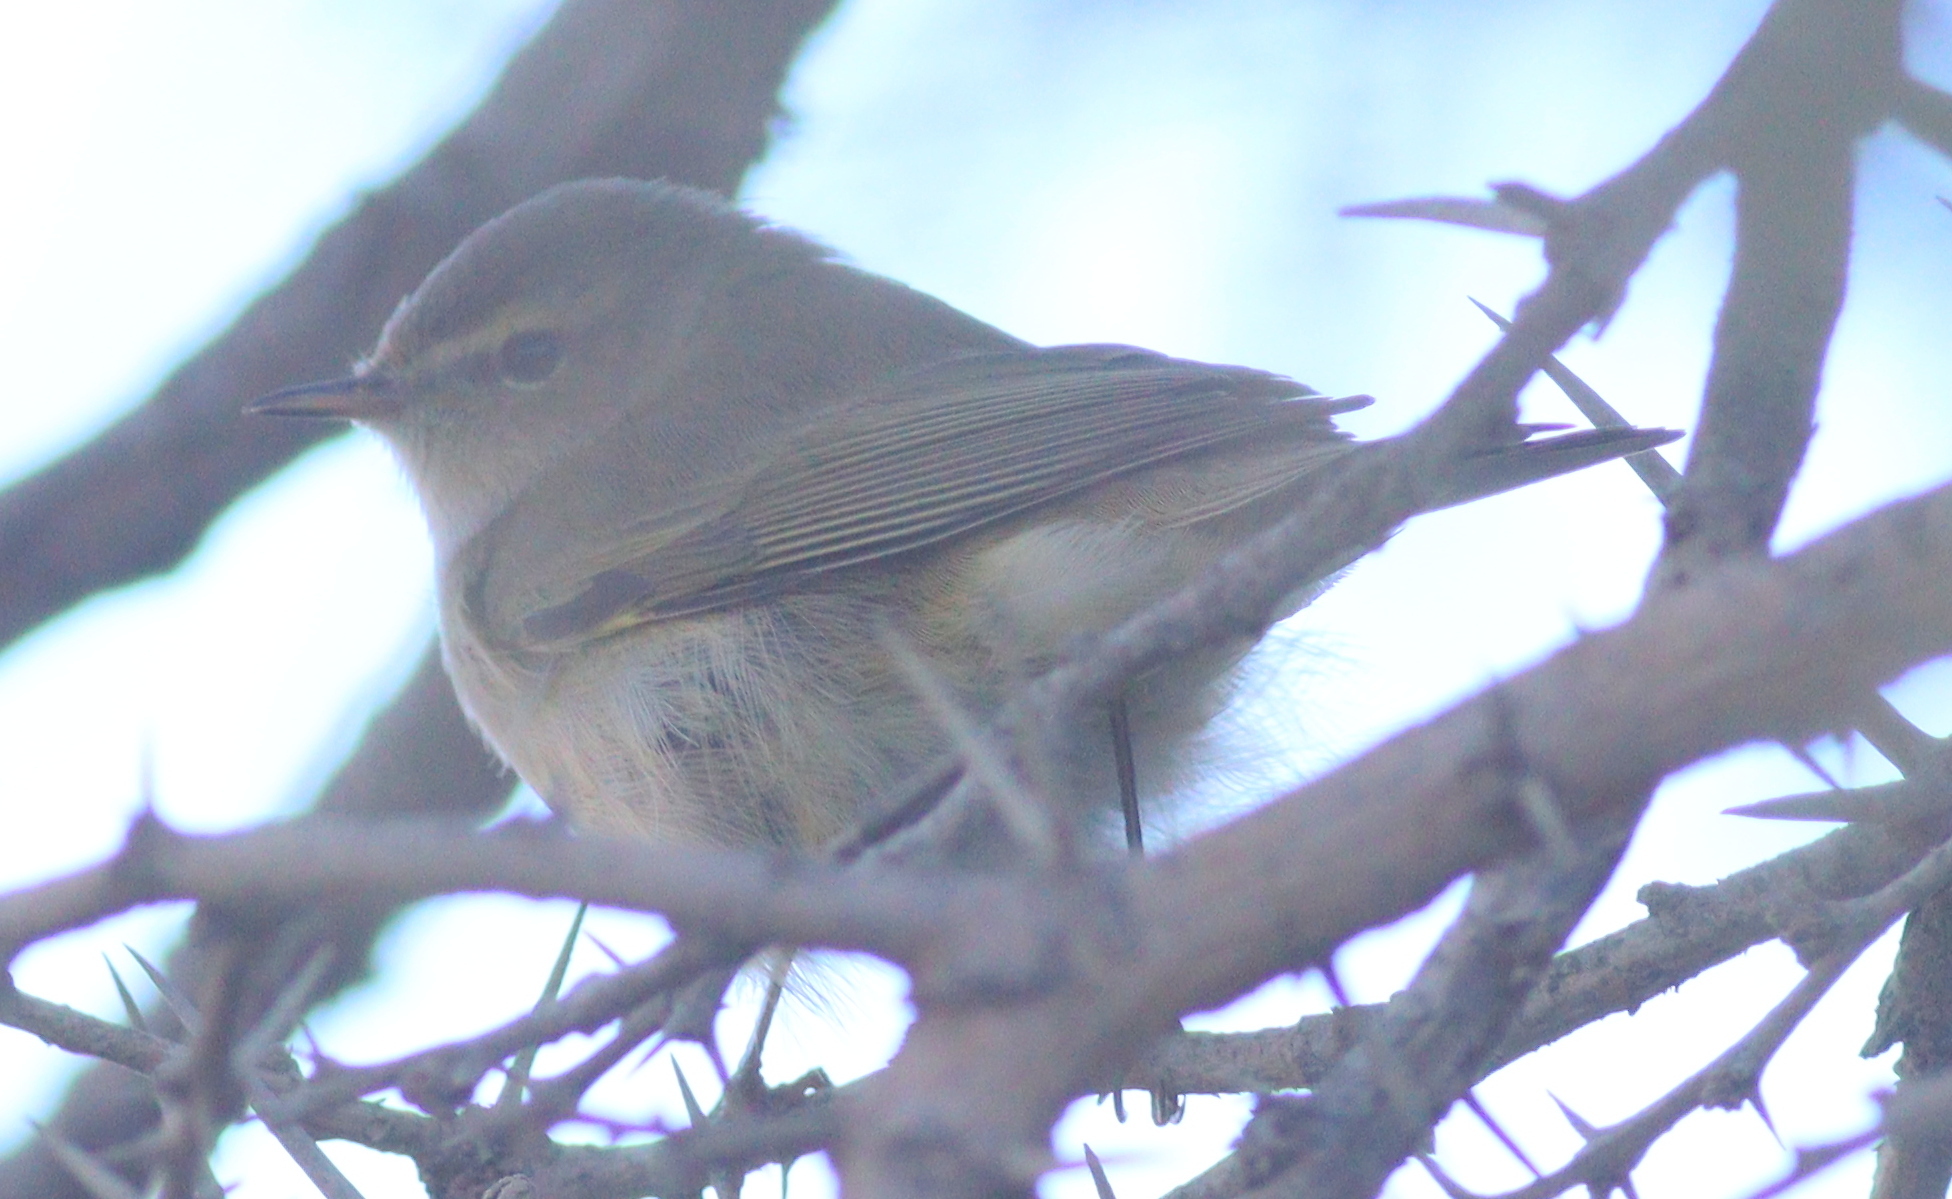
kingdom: Animalia
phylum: Chordata
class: Aves
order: Passeriformes
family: Phylloscopidae
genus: Phylloscopus
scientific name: Phylloscopus collybita
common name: Common chiffchaff
